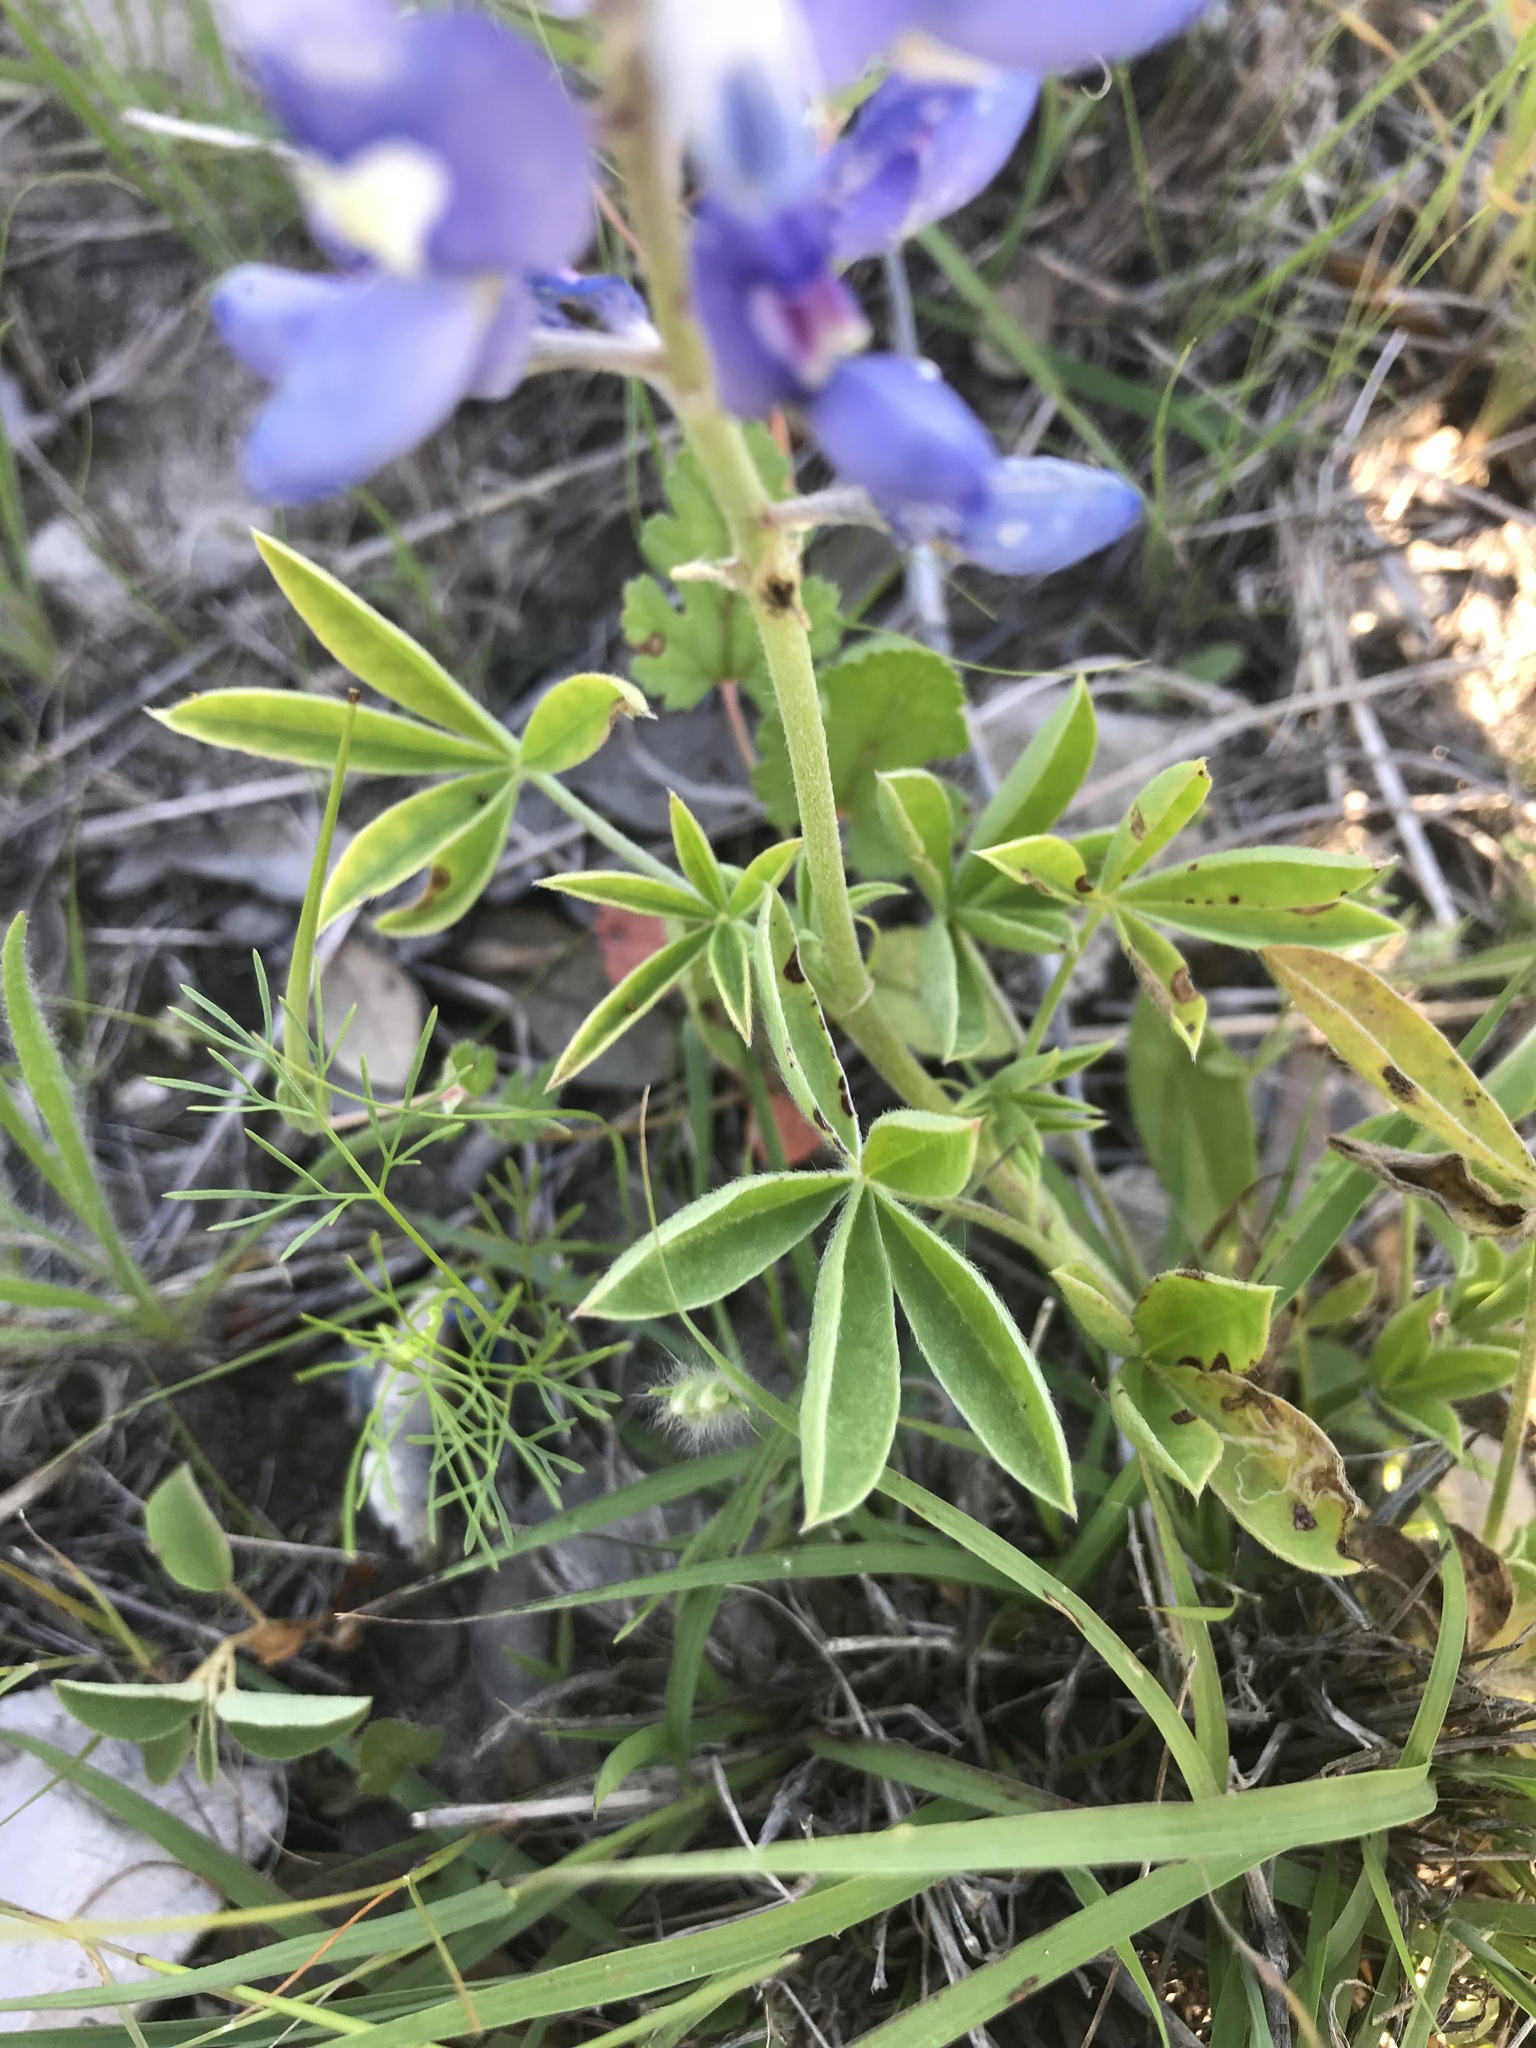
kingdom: Plantae
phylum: Tracheophyta
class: Magnoliopsida
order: Fabales
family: Fabaceae
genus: Lupinus
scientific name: Lupinus texensis
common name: Texas bluebonnet
